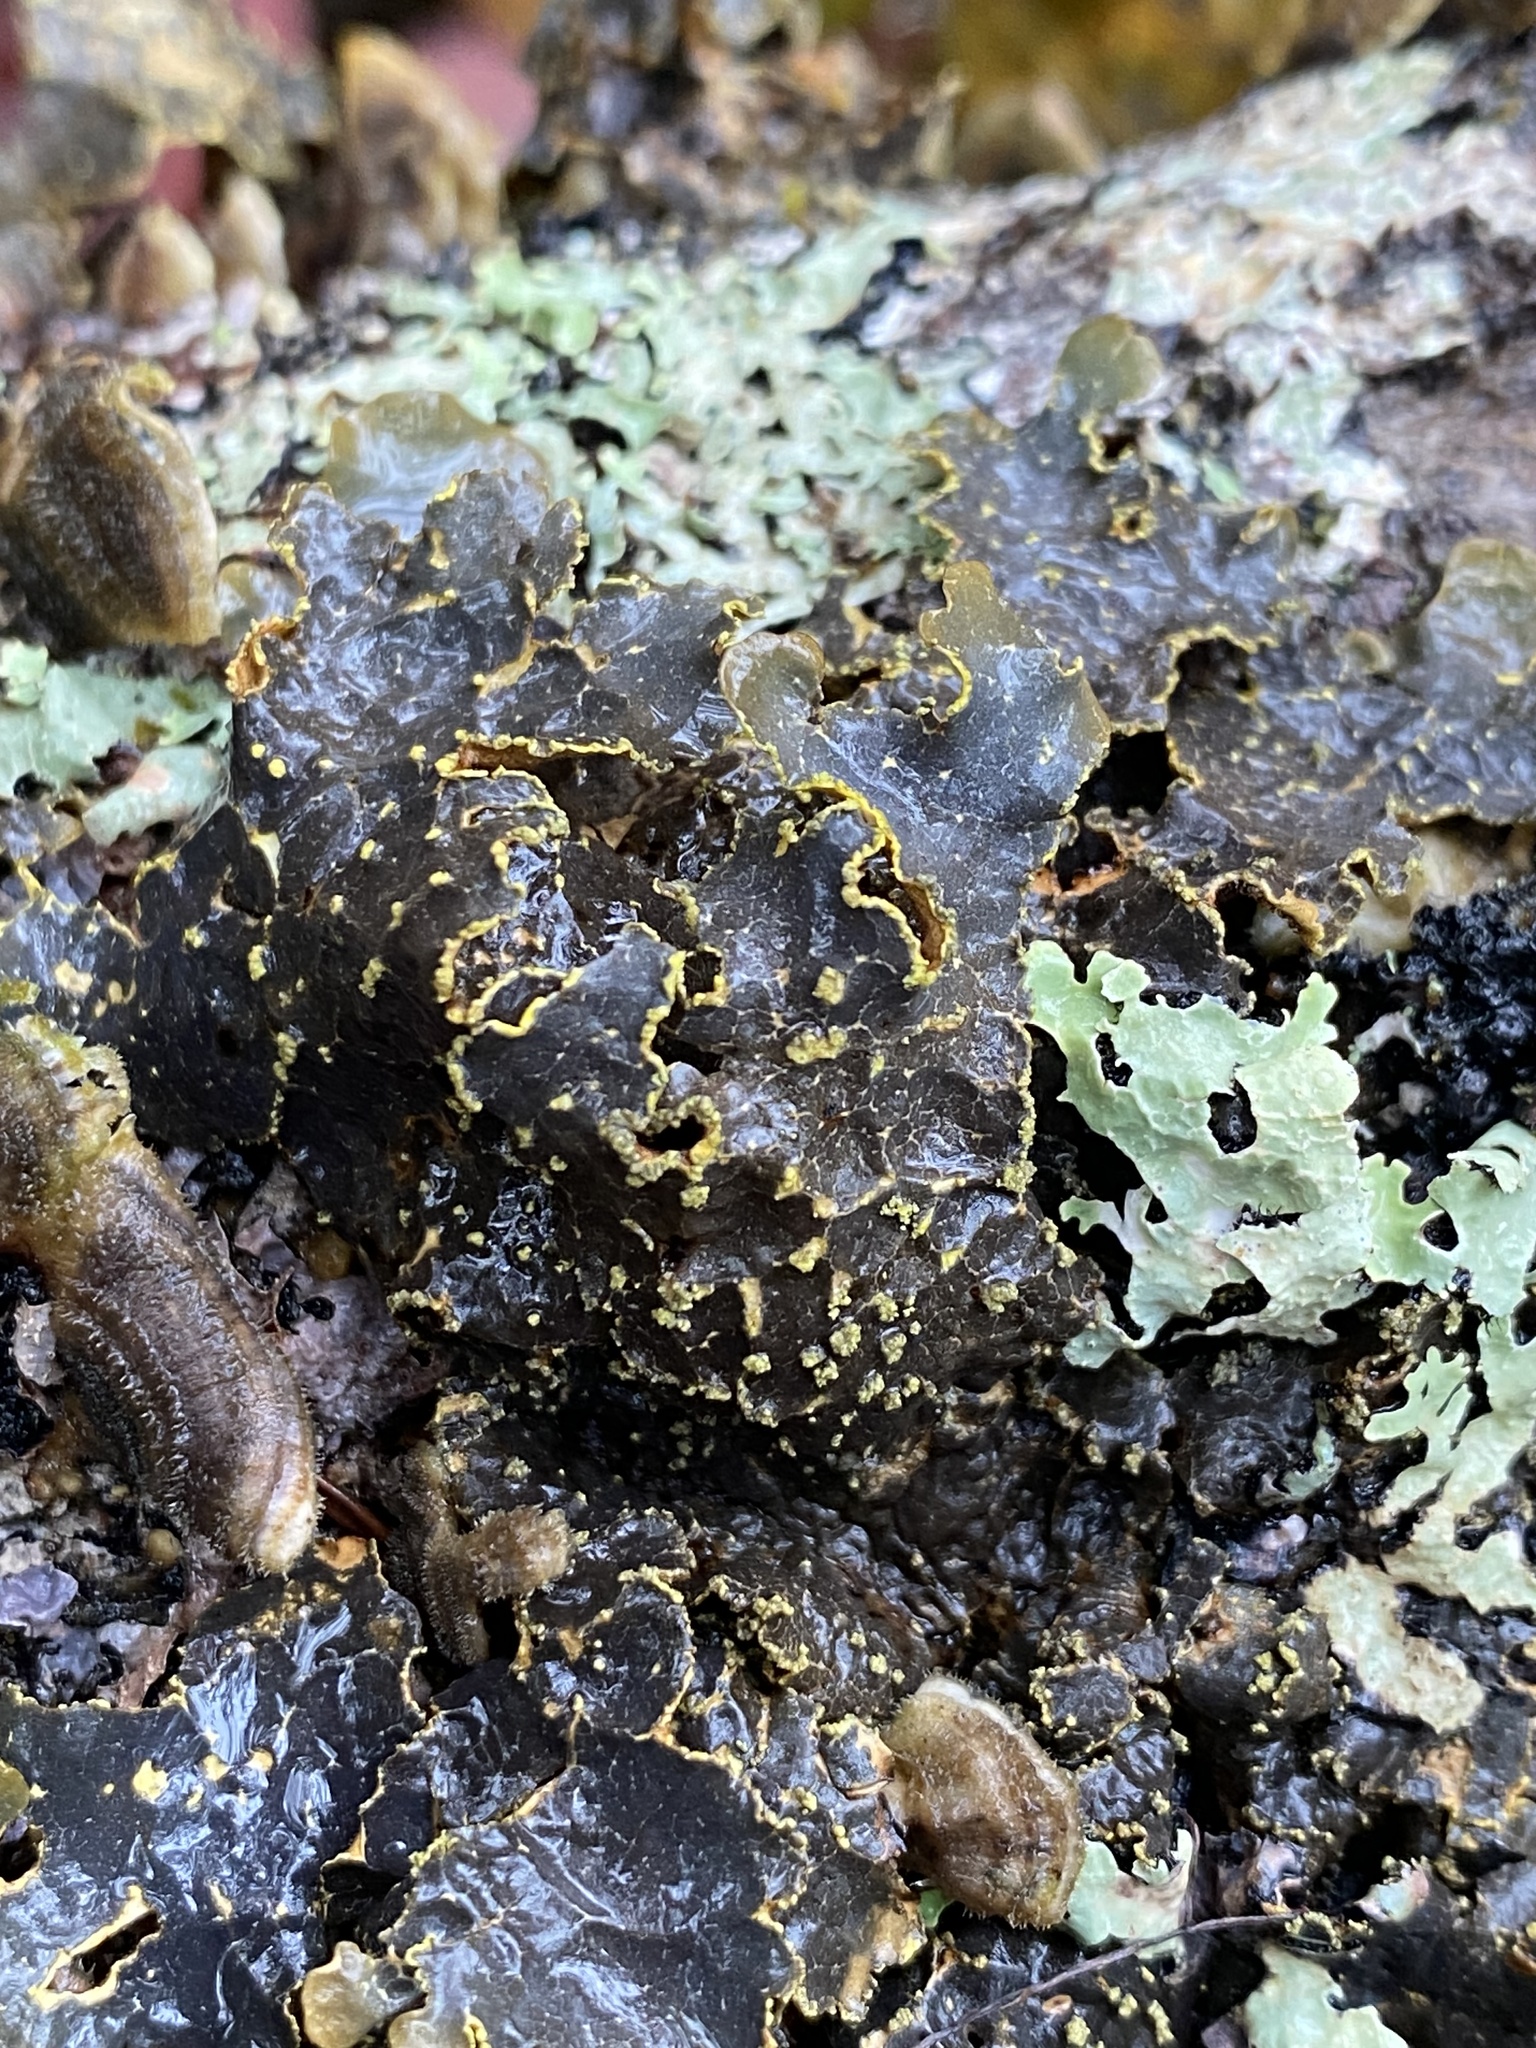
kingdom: Fungi
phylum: Ascomycota
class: Lecanoromycetes
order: Peltigerales
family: Lobariaceae
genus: Pseudocyphellaria
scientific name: Pseudocyphellaria holarctica
